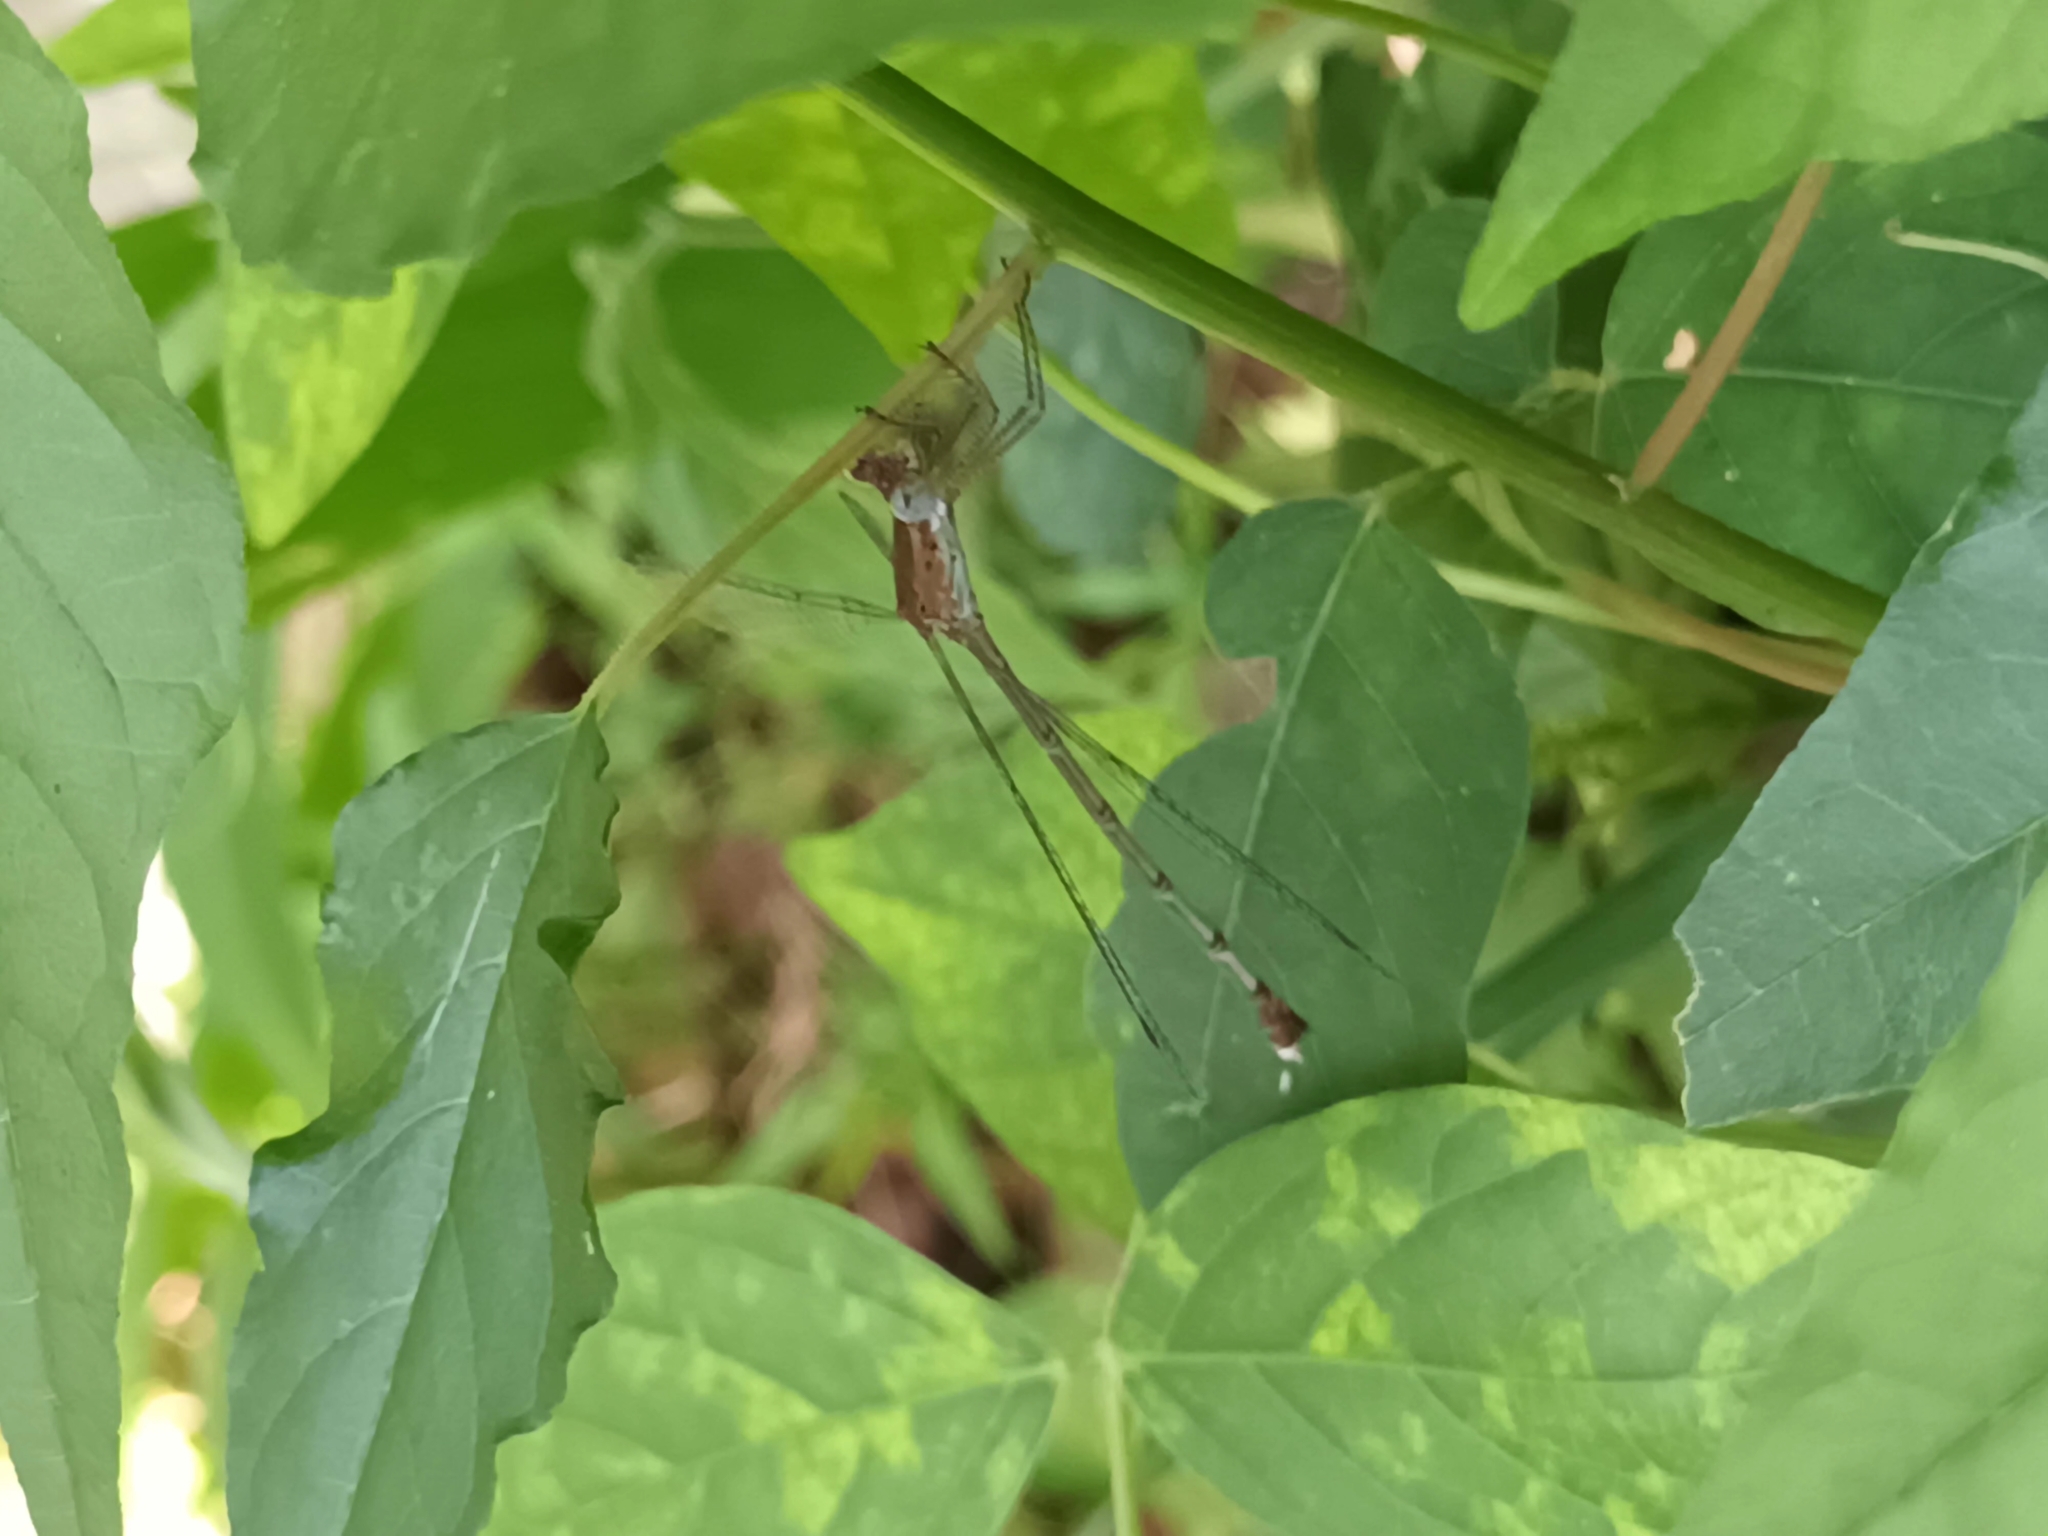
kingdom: Animalia
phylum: Arthropoda
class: Insecta
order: Odonata
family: Lestidae
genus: Lestes
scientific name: Lestes elatus
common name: Emerald spreadwing
